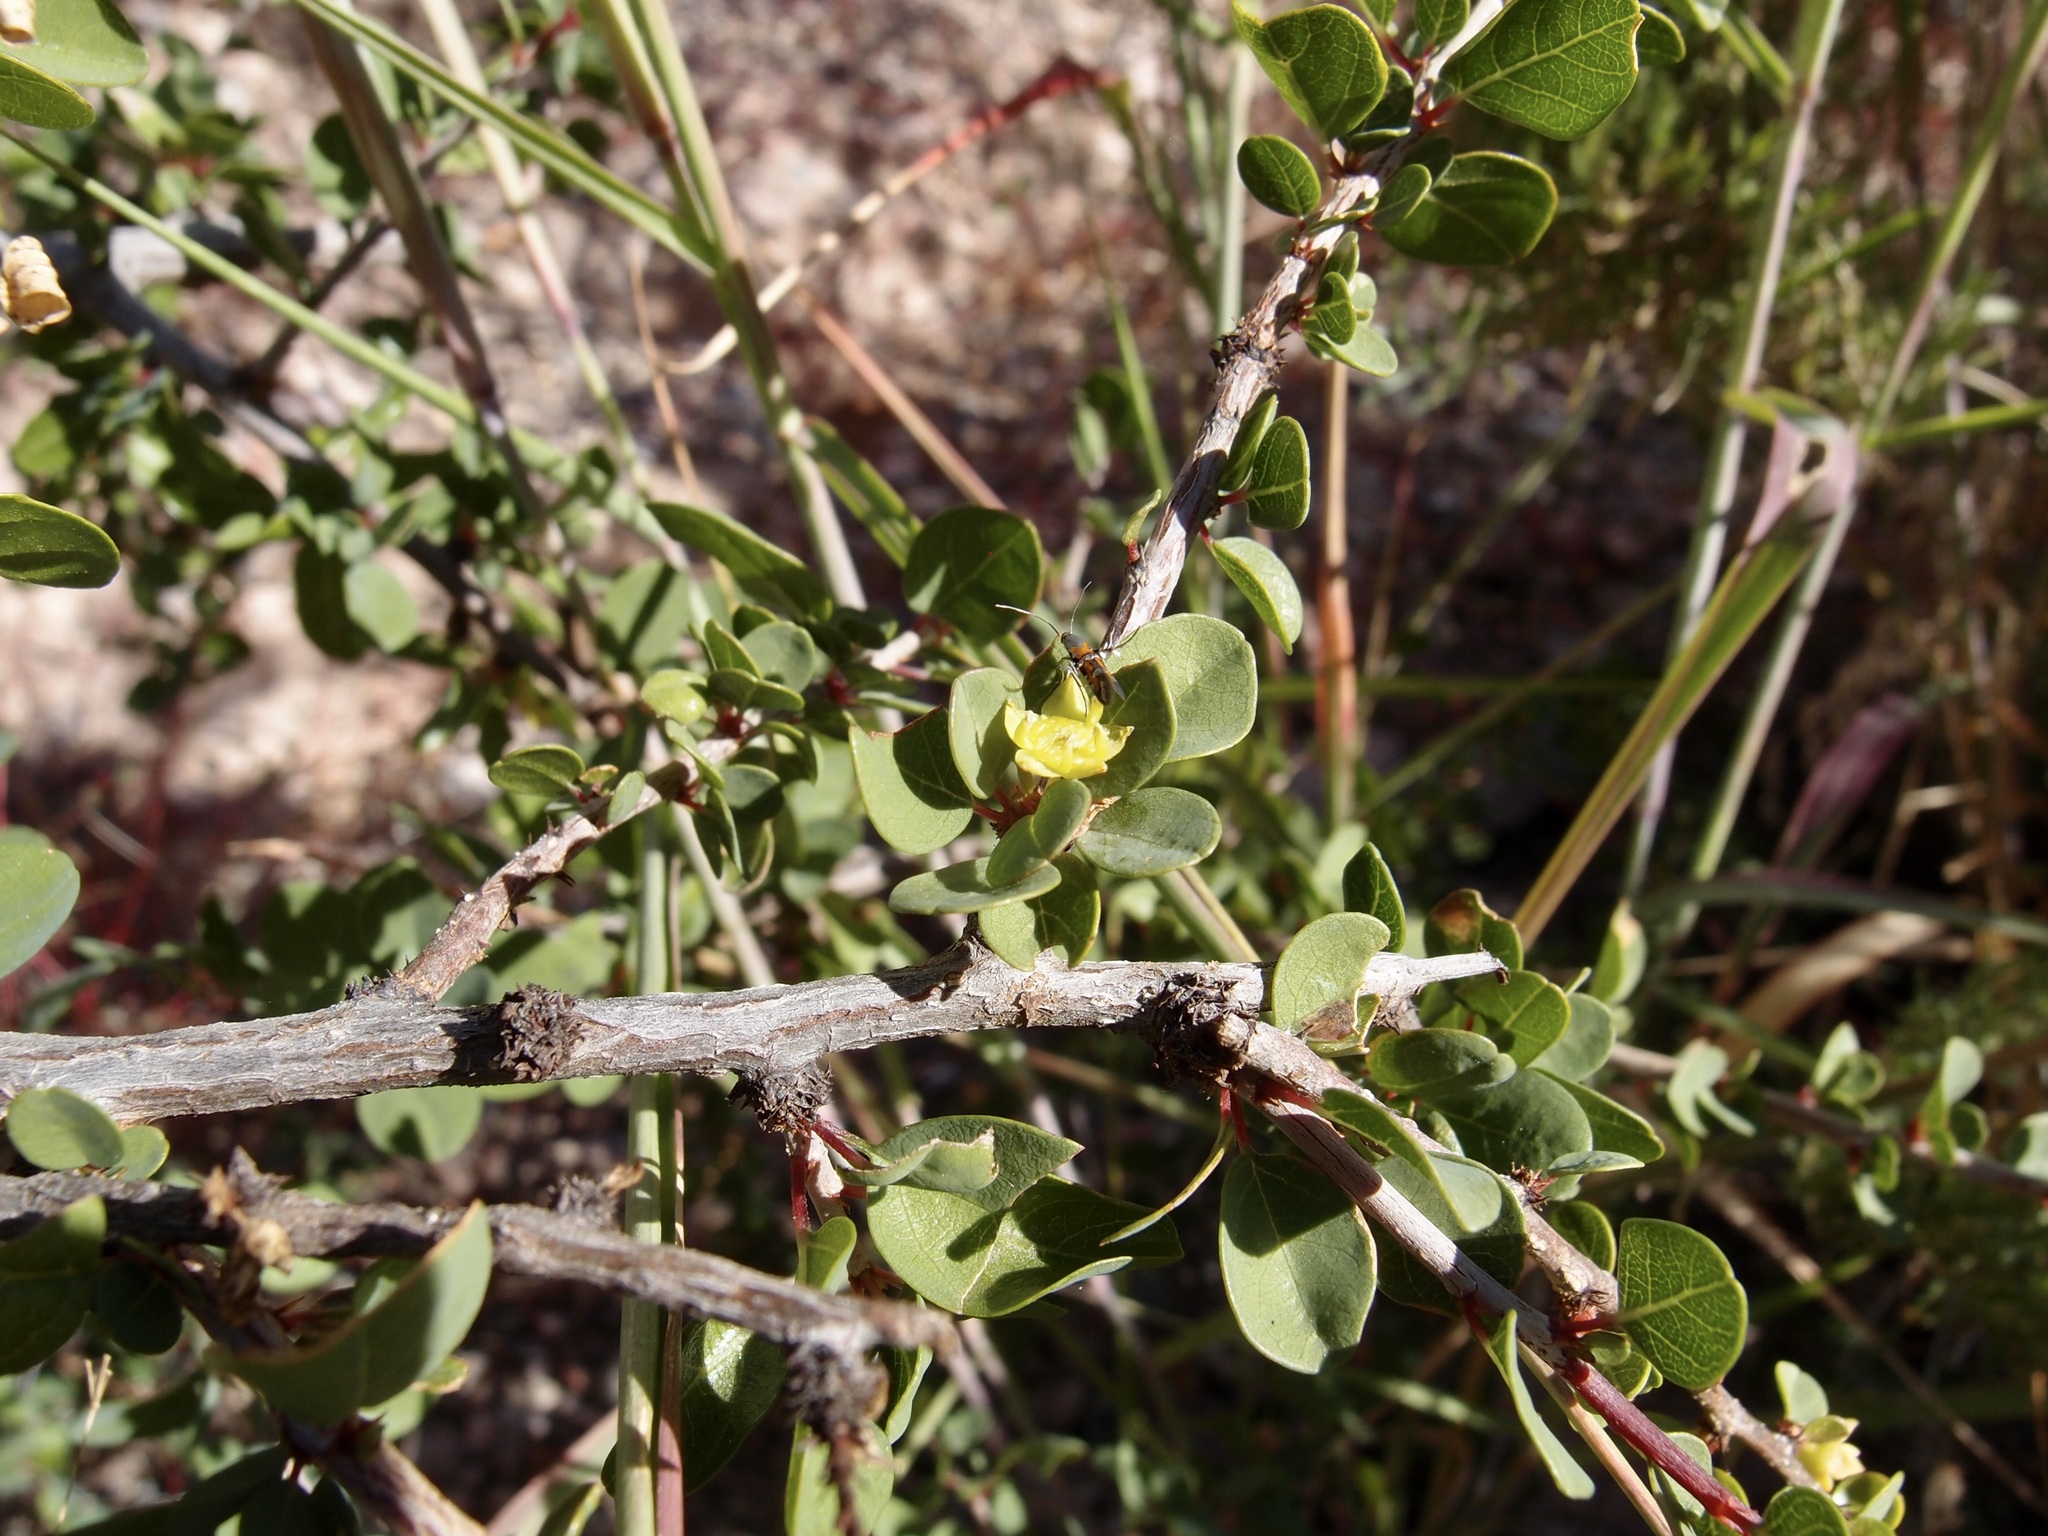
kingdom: Plantae
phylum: Tracheophyta
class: Magnoliopsida
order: Rosales
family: Rhamnaceae
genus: Colubrina
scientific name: Colubrina viridis
